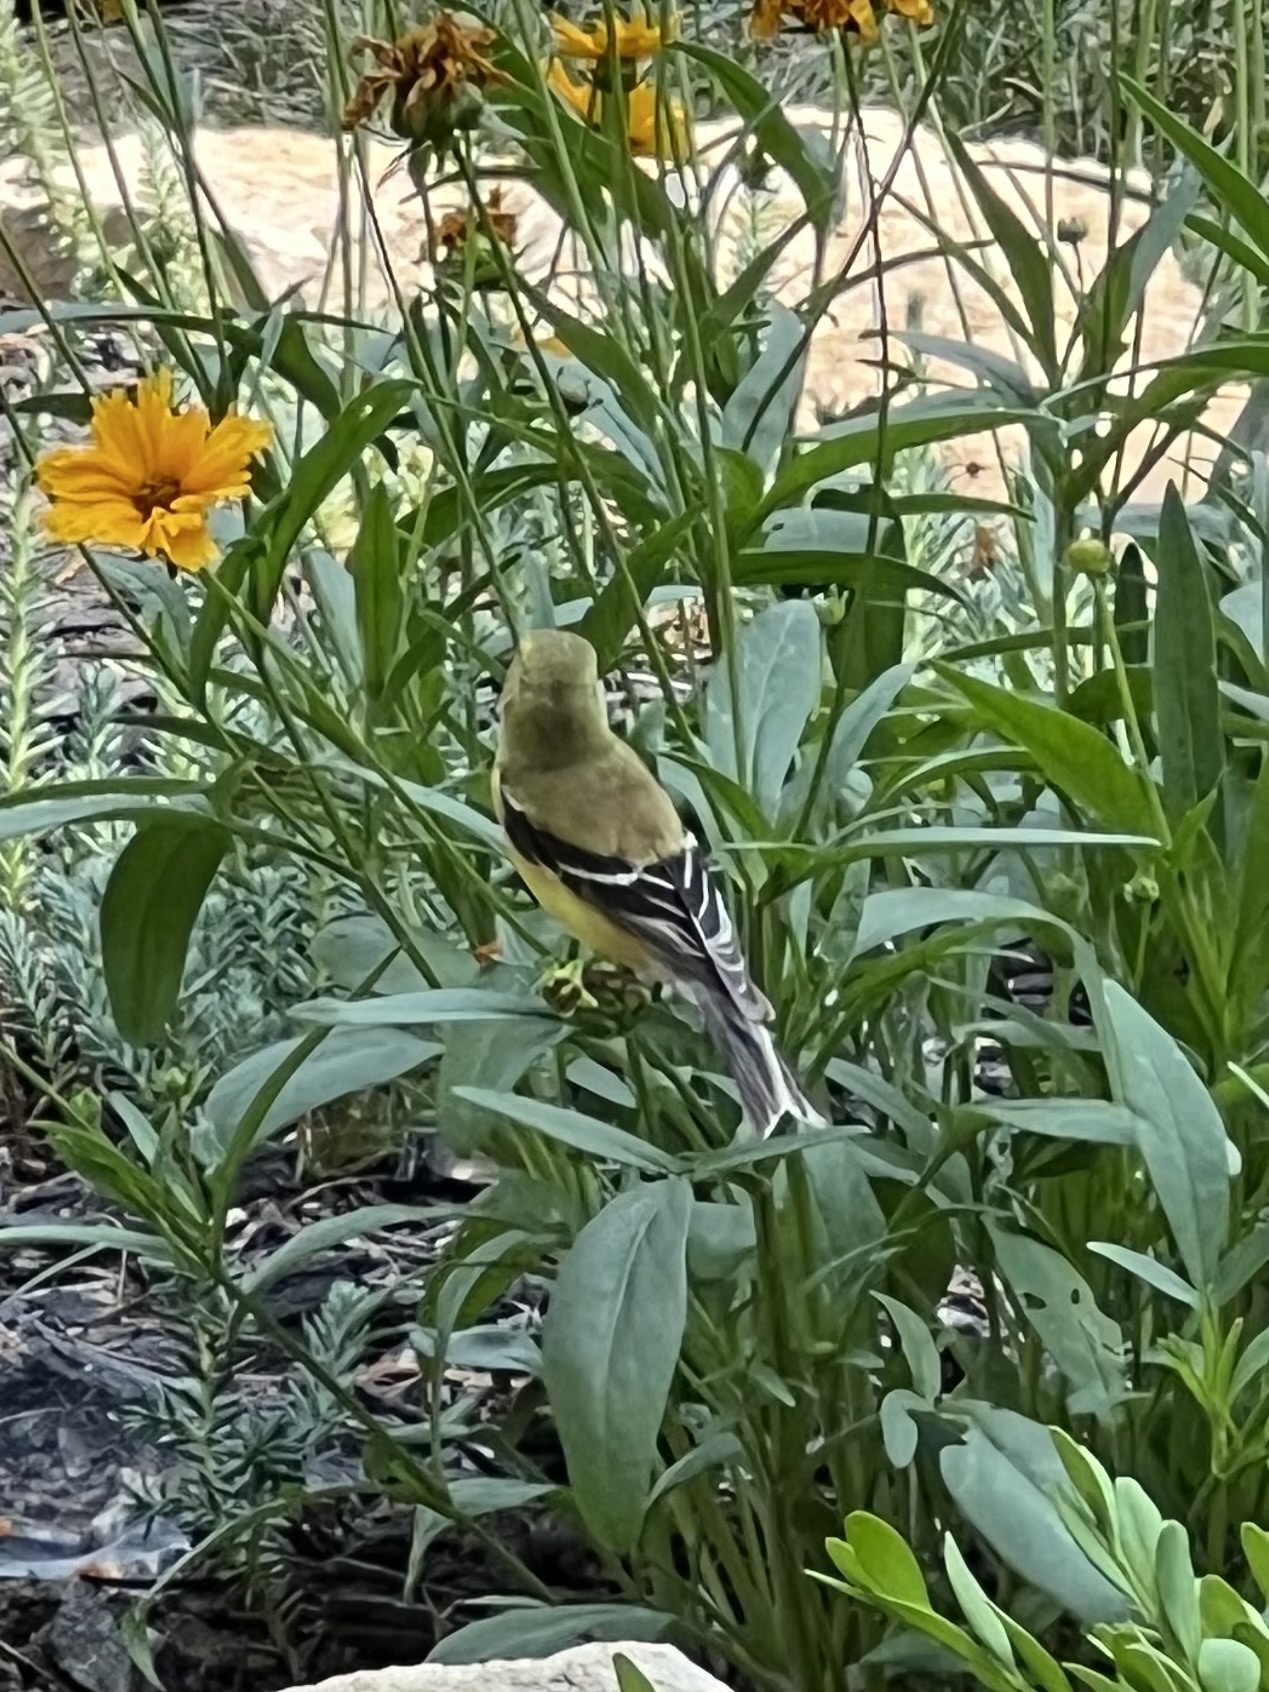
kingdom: Animalia
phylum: Chordata
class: Aves
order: Passeriformes
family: Fringillidae
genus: Spinus
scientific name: Spinus tristis
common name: American goldfinch
